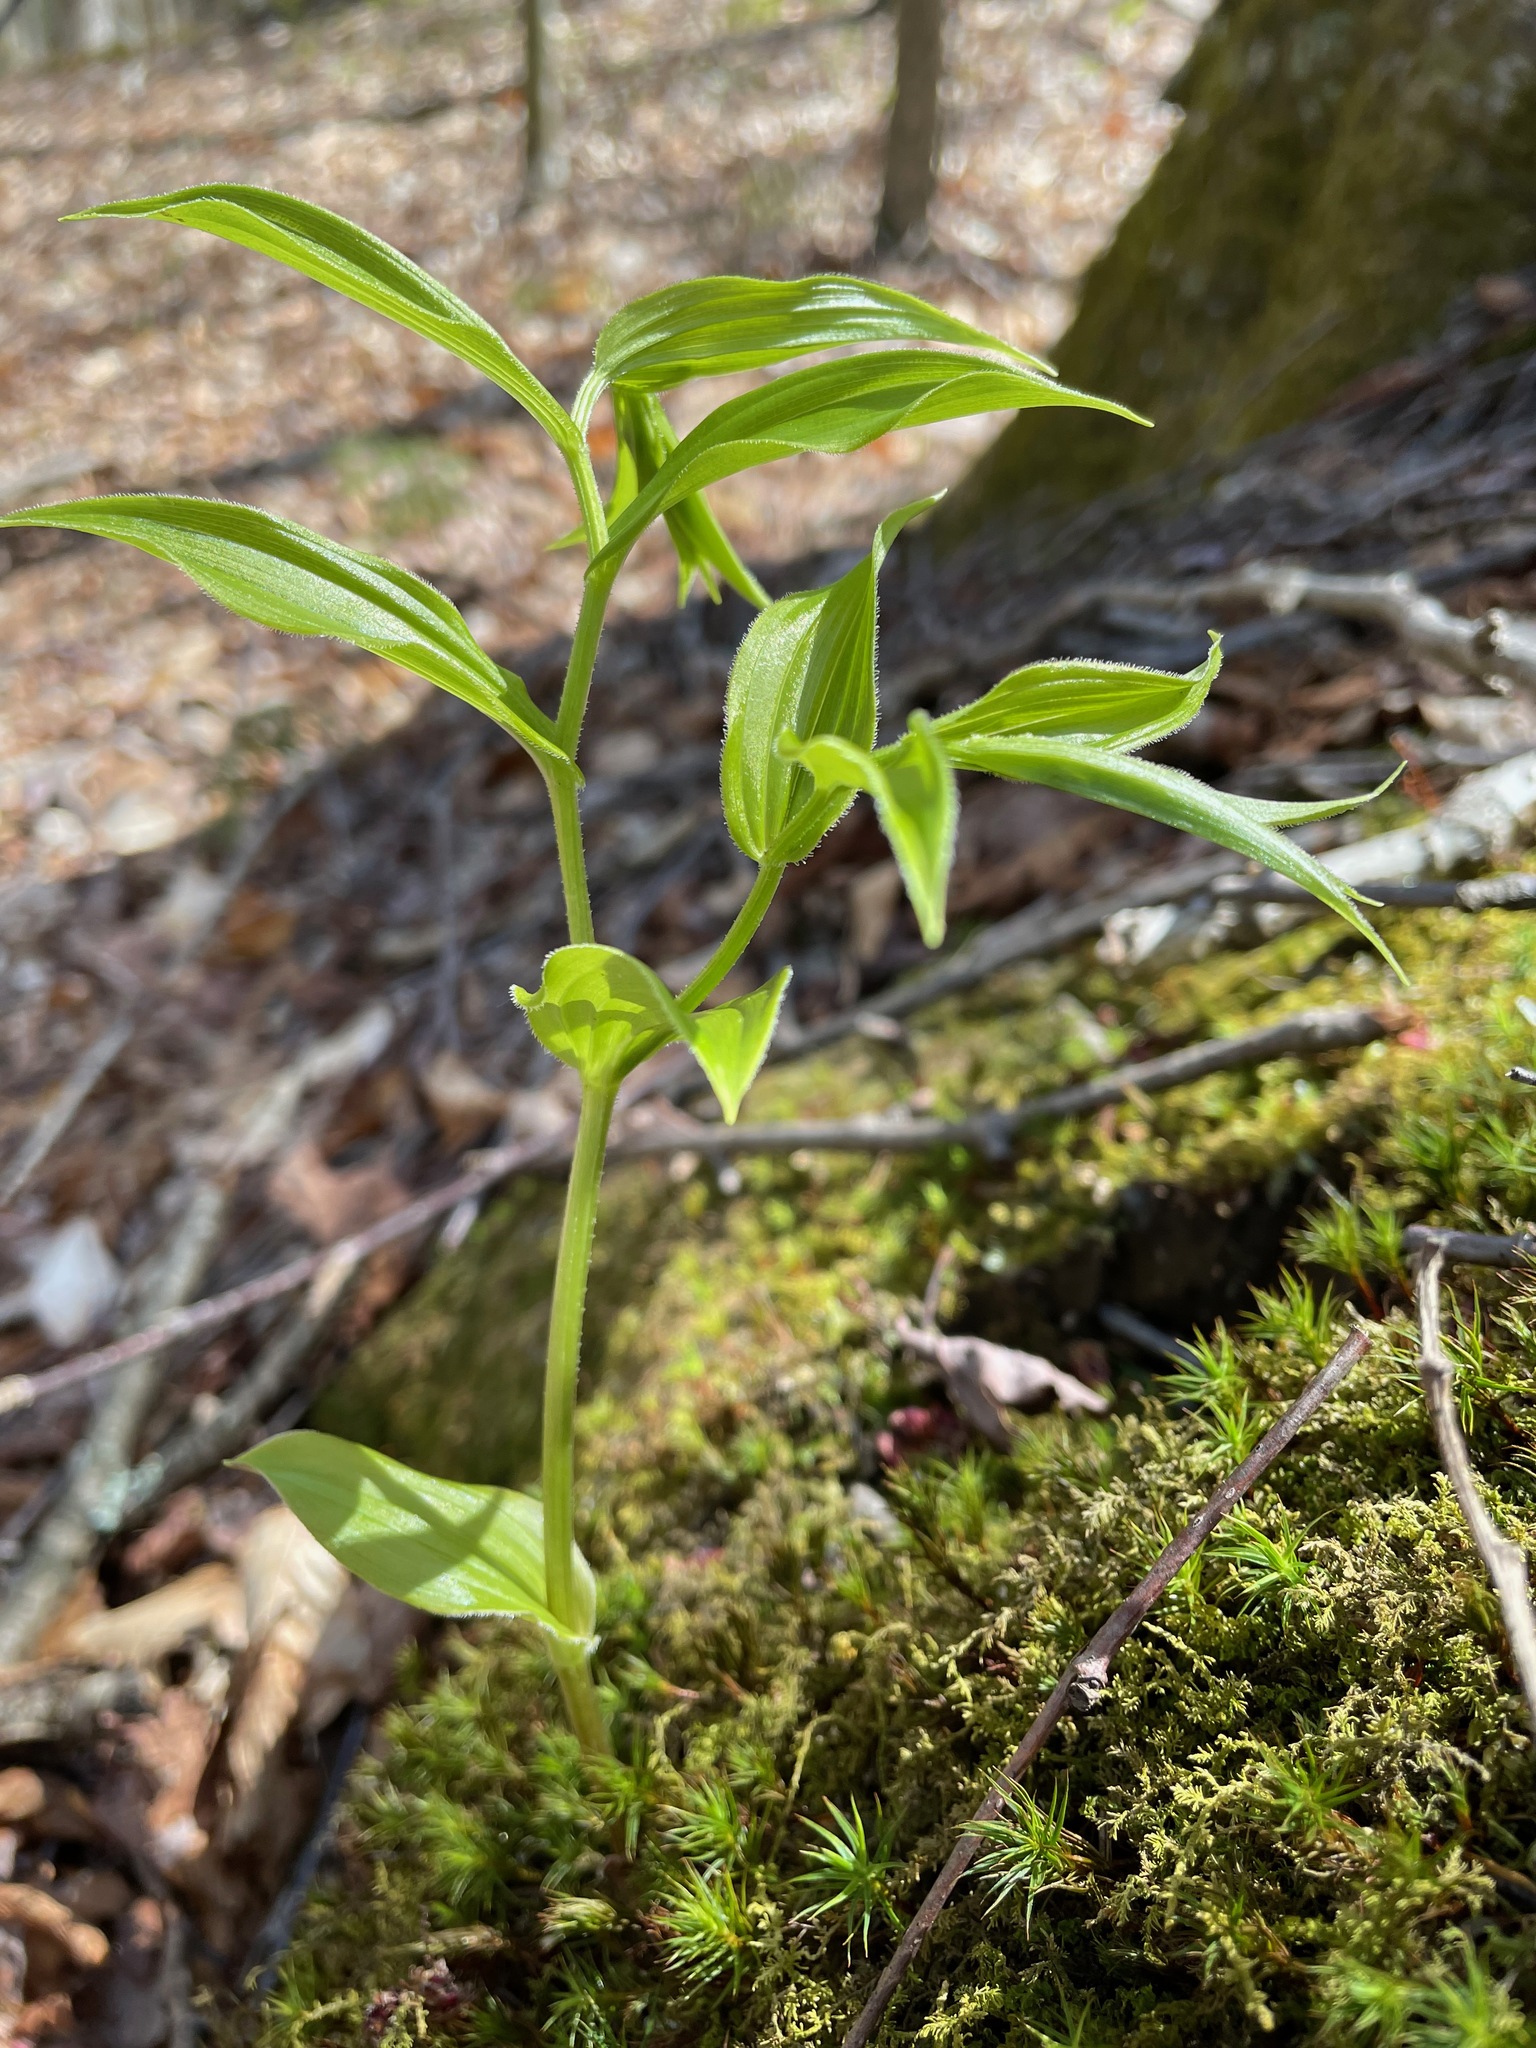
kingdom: Plantae
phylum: Tracheophyta
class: Liliopsida
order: Liliales
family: Liliaceae
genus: Streptopus
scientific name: Streptopus lanceolatus
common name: Rose mandarin
